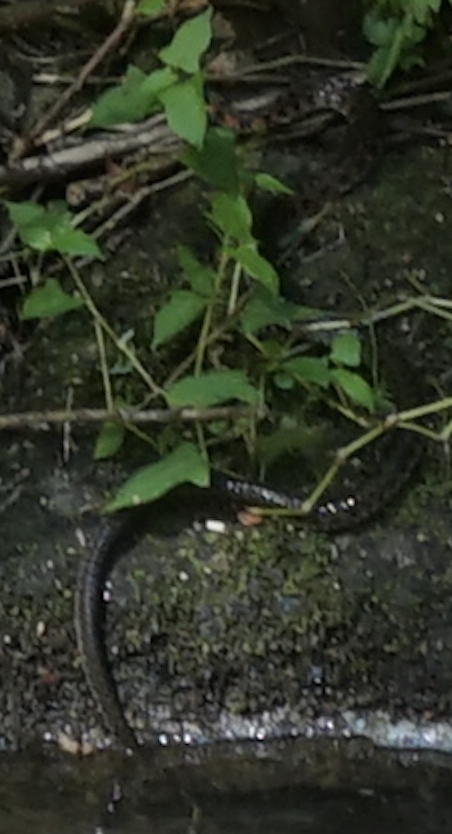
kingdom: Animalia
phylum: Chordata
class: Squamata
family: Colubridae
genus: Rhabdophis
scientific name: Rhabdophis tigrinus
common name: Tiger keelback
